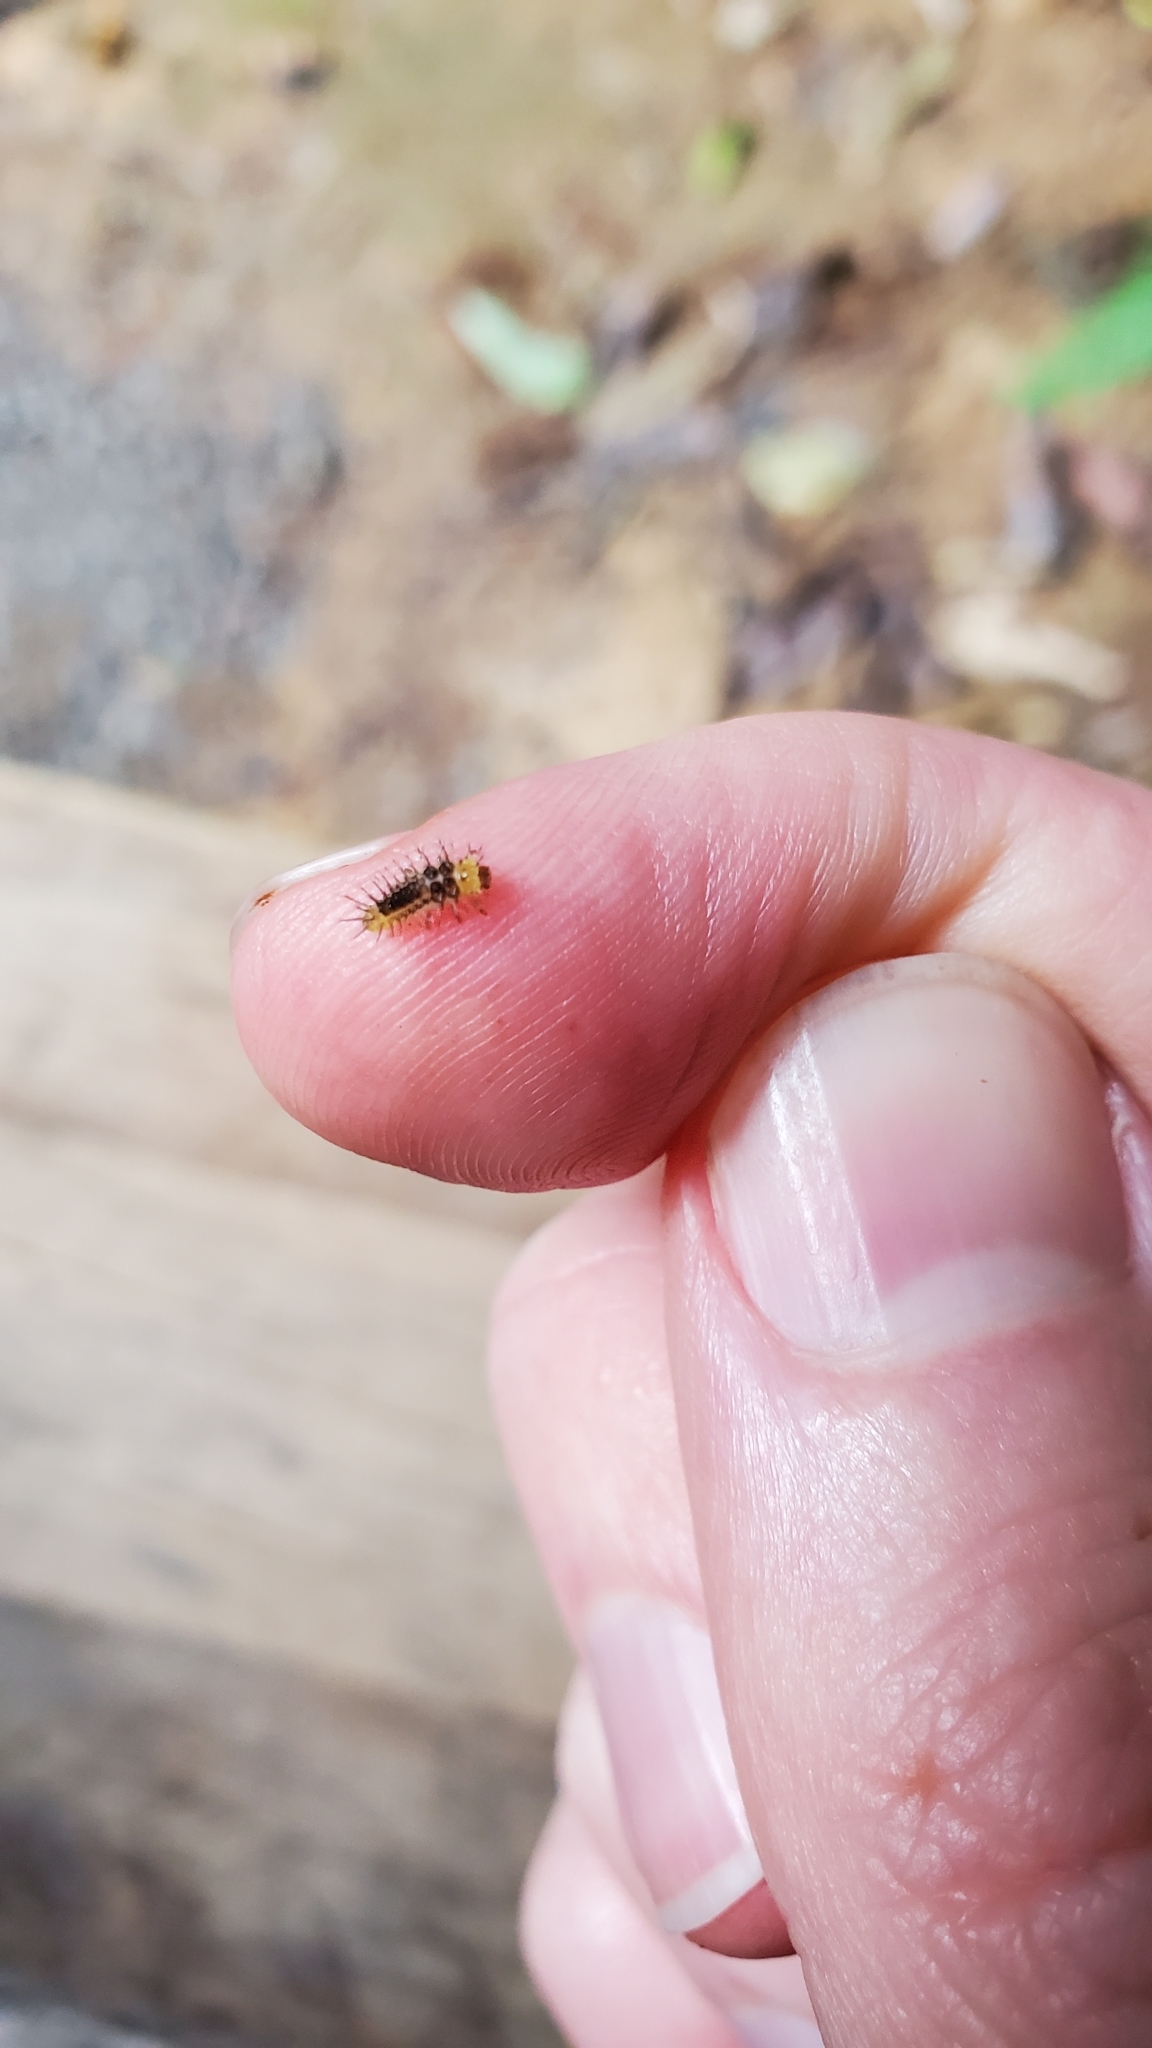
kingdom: Animalia
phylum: Arthropoda
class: Insecta
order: Coleoptera
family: Coccinellidae
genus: Halmus
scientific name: Halmus chalybeus
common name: Steel blue ladybird beetle
